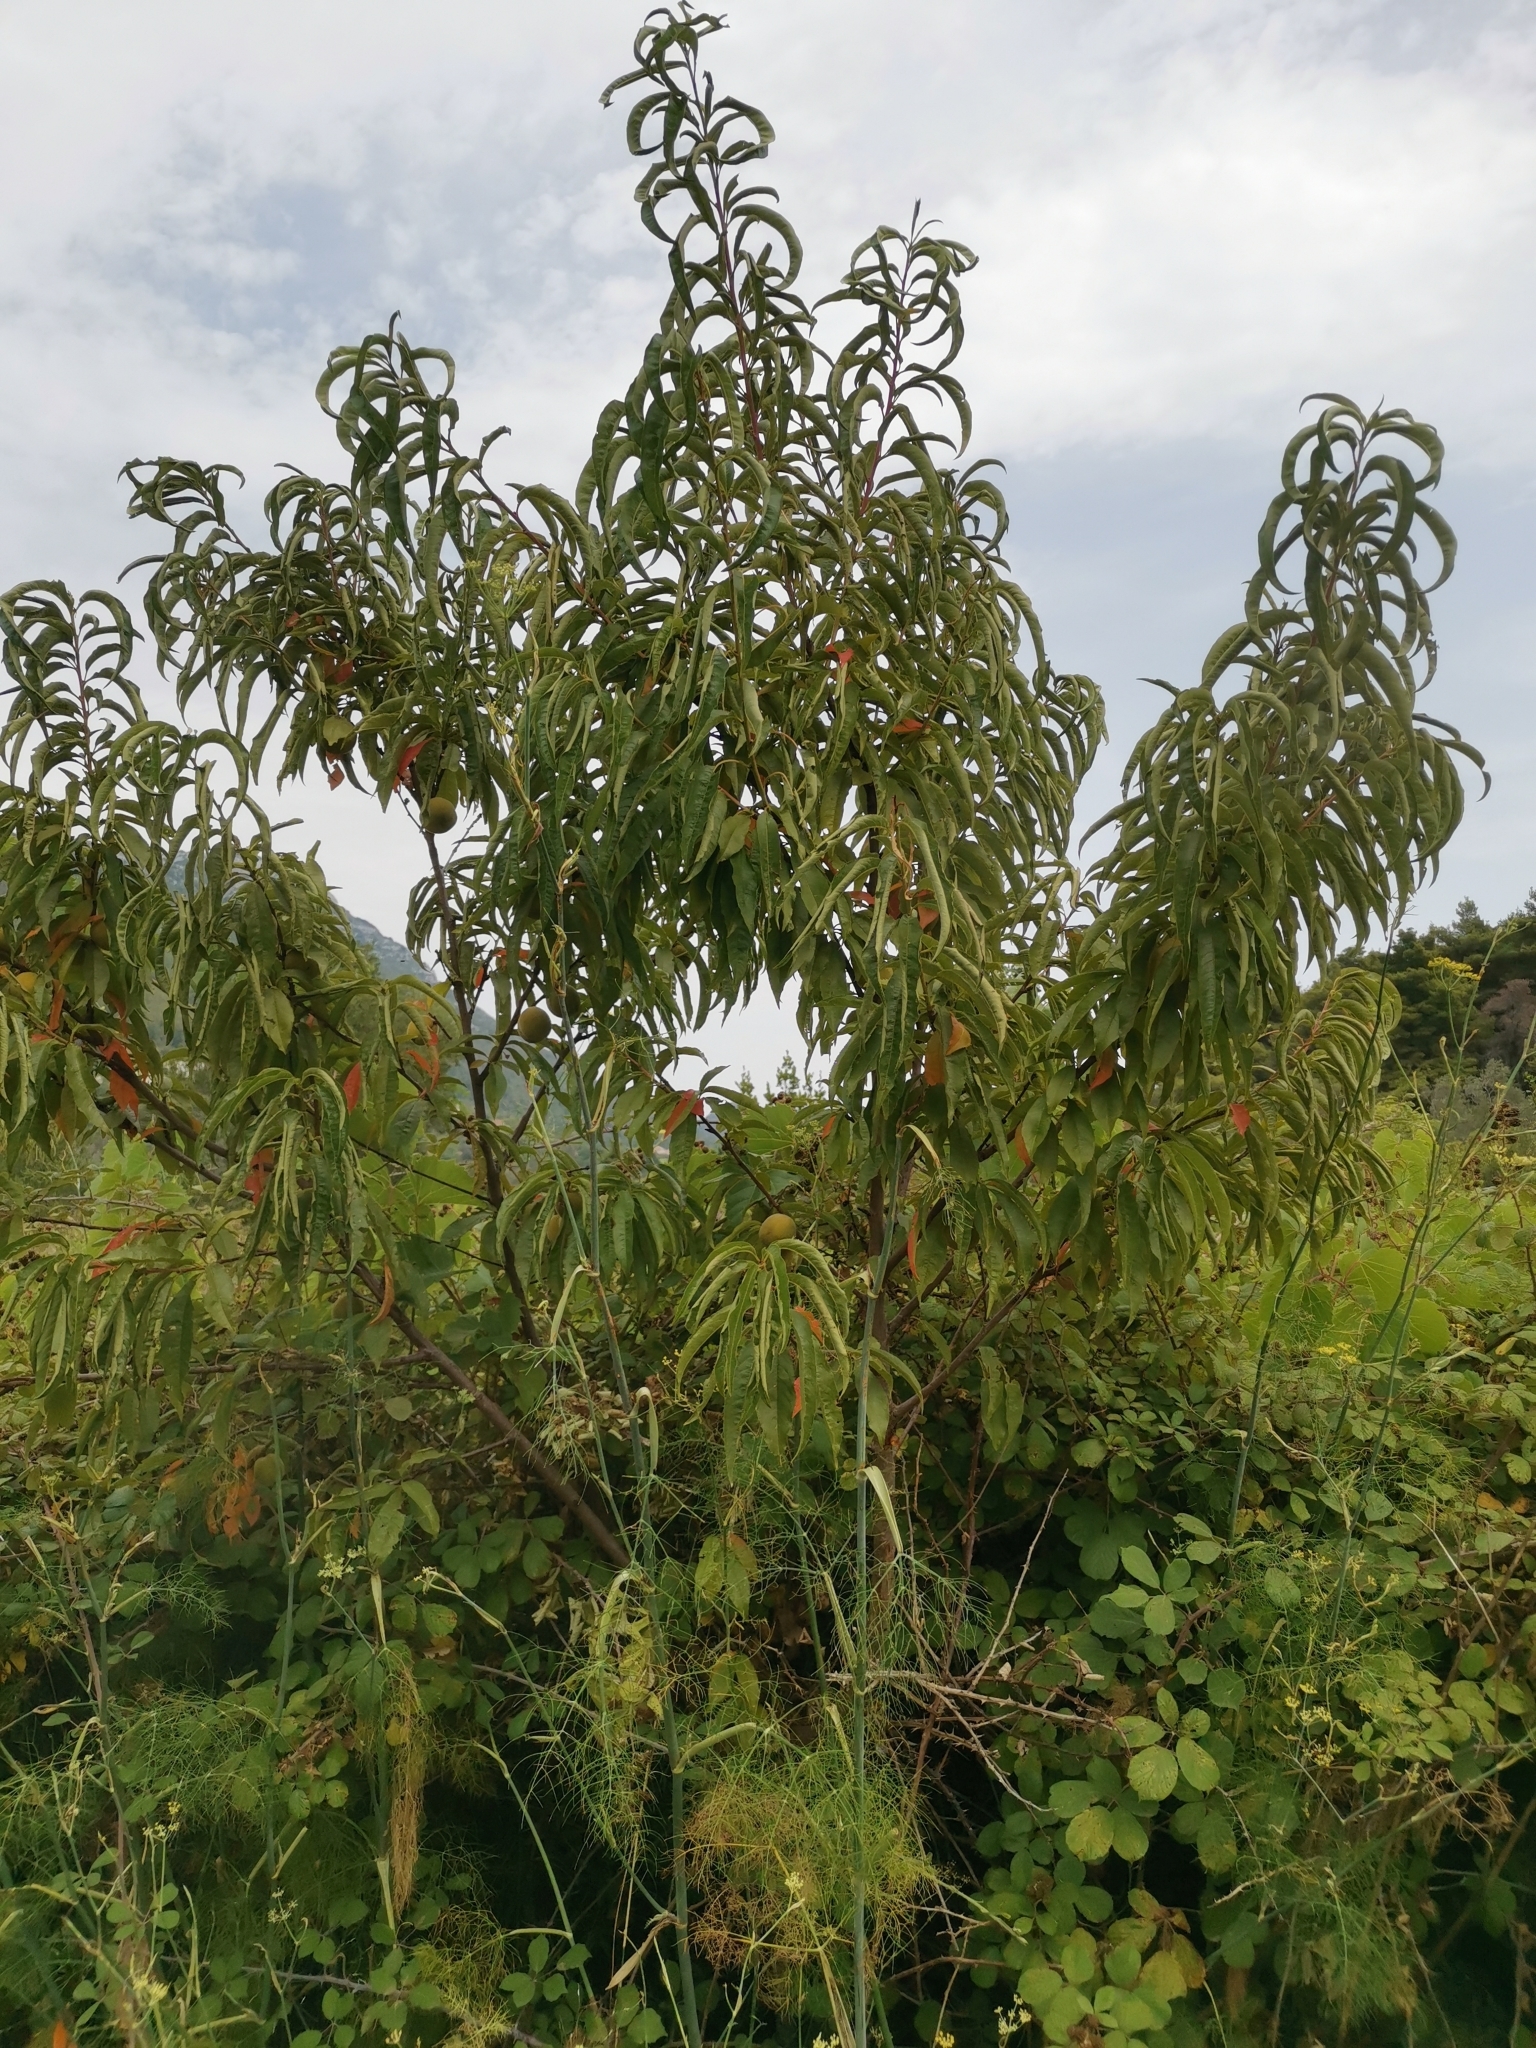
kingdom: Plantae
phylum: Tracheophyta
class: Magnoliopsida
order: Rosales
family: Rosaceae
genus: Prunus
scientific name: Prunus persica
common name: Peach
